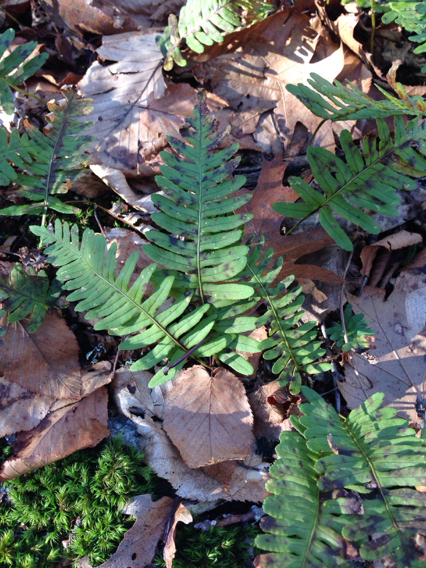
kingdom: Plantae
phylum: Tracheophyta
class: Polypodiopsida
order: Polypodiales
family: Polypodiaceae
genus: Polypodium
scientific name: Polypodium virginianum
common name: American wall fern
